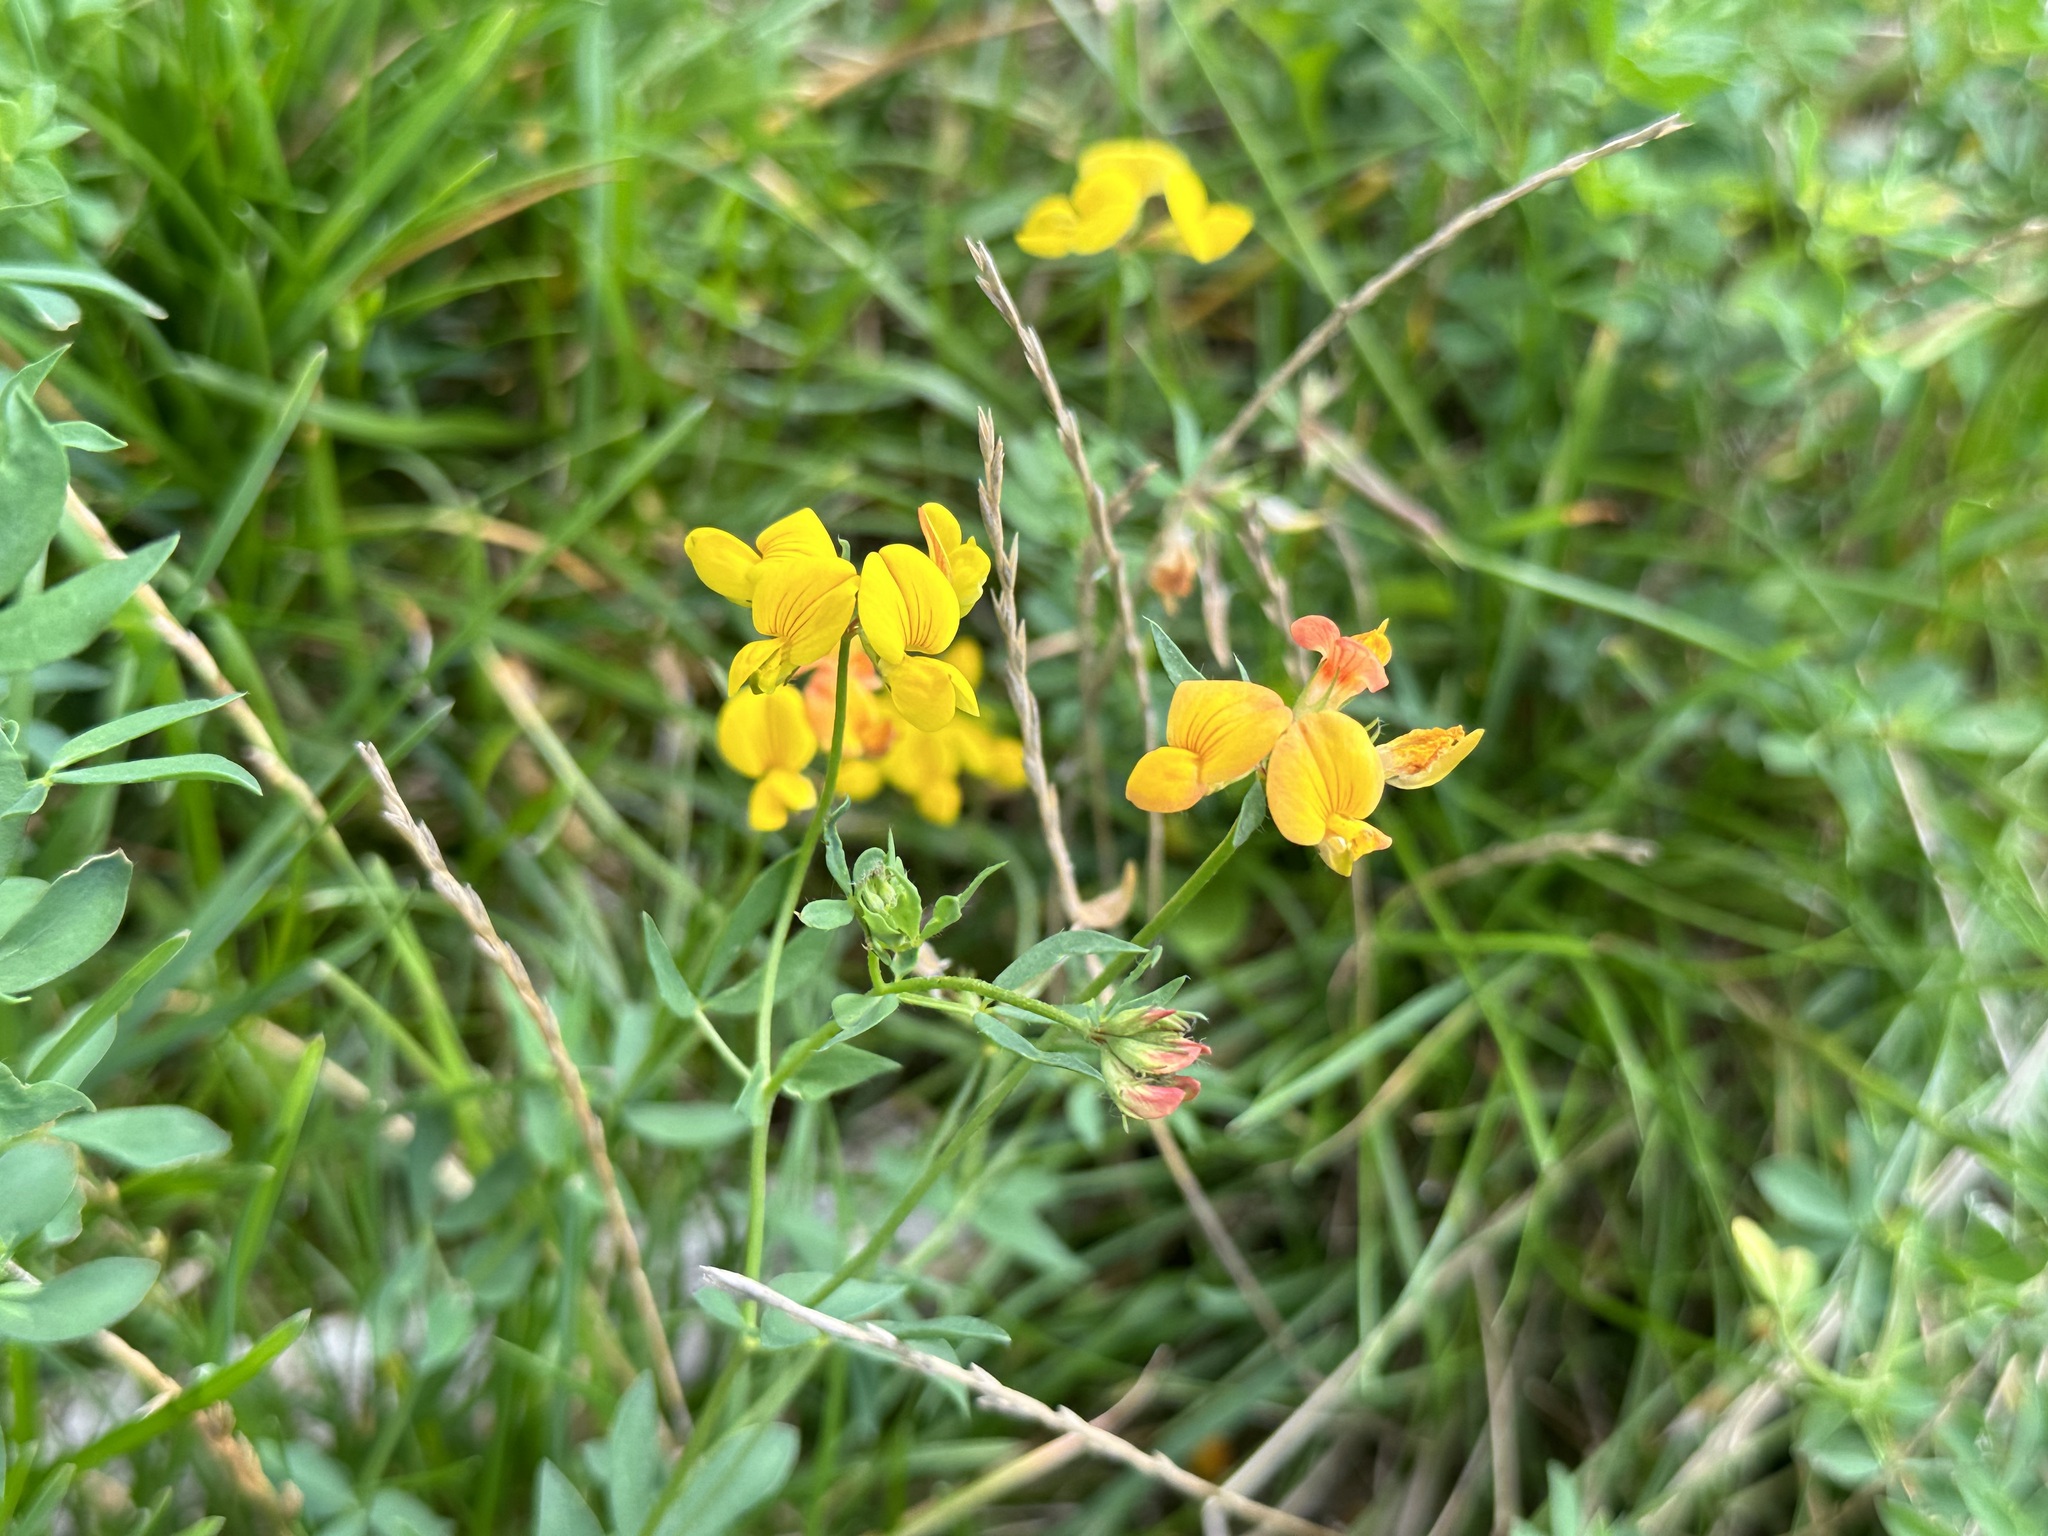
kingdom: Plantae
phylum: Tracheophyta
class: Magnoliopsida
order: Fabales
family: Fabaceae
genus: Lotus
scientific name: Lotus corniculatus
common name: Common bird's-foot-trefoil
